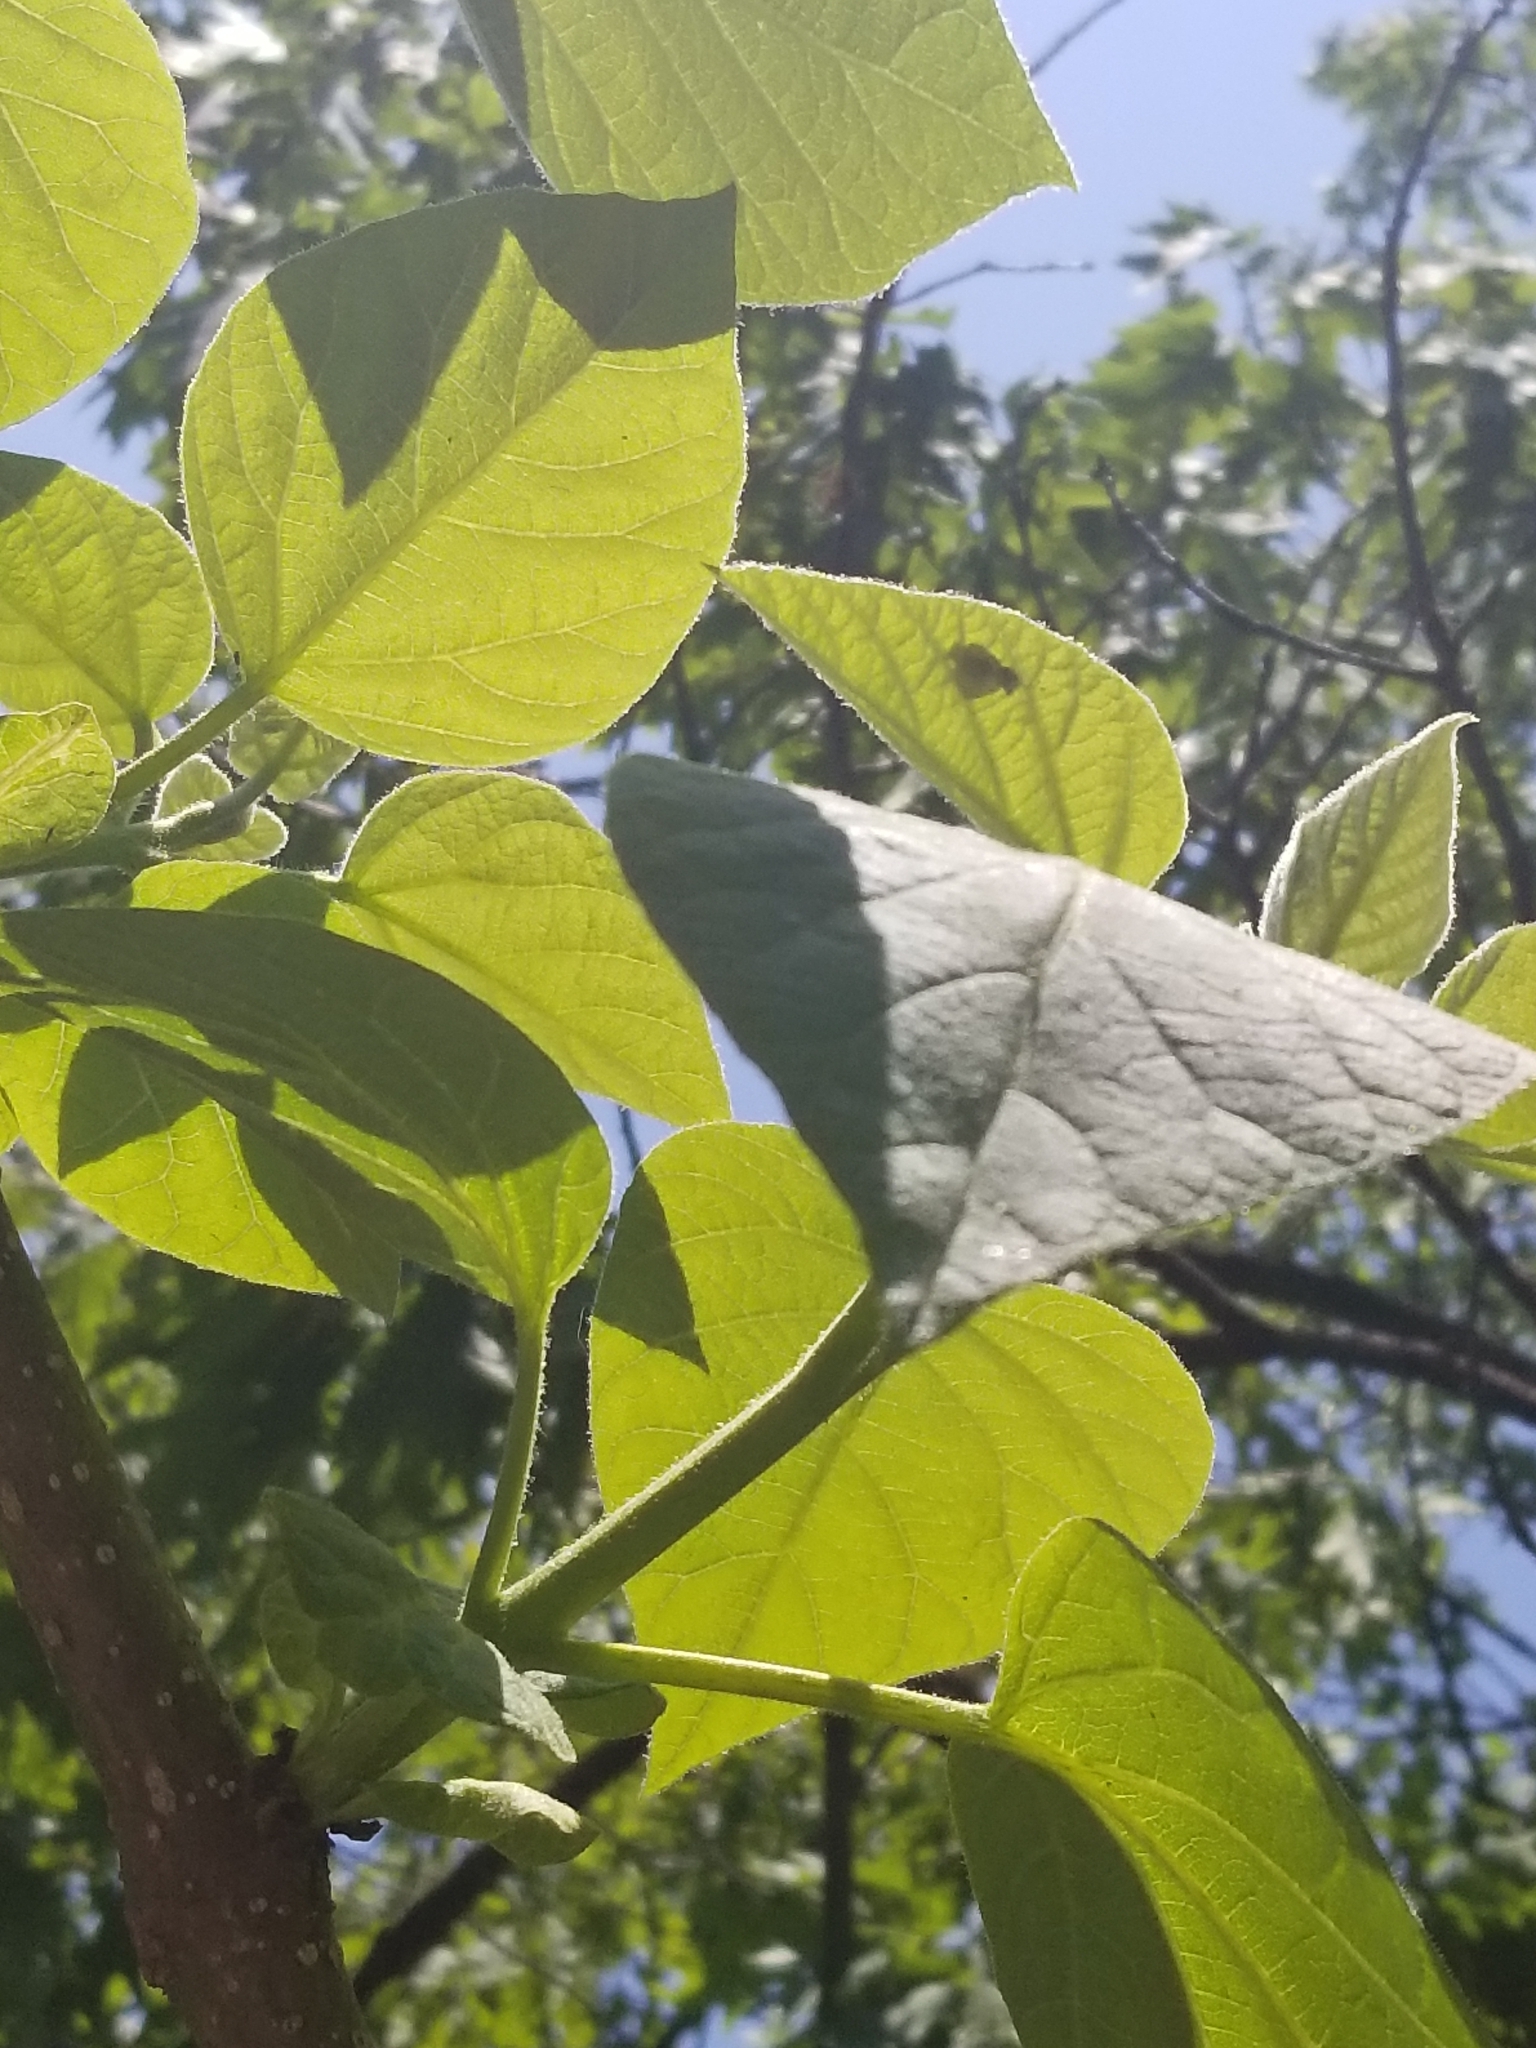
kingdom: Plantae
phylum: Tracheophyta
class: Magnoliopsida
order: Lamiales
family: Paulowniaceae
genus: Paulownia
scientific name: Paulownia tomentosa
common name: Foxglove-tree
